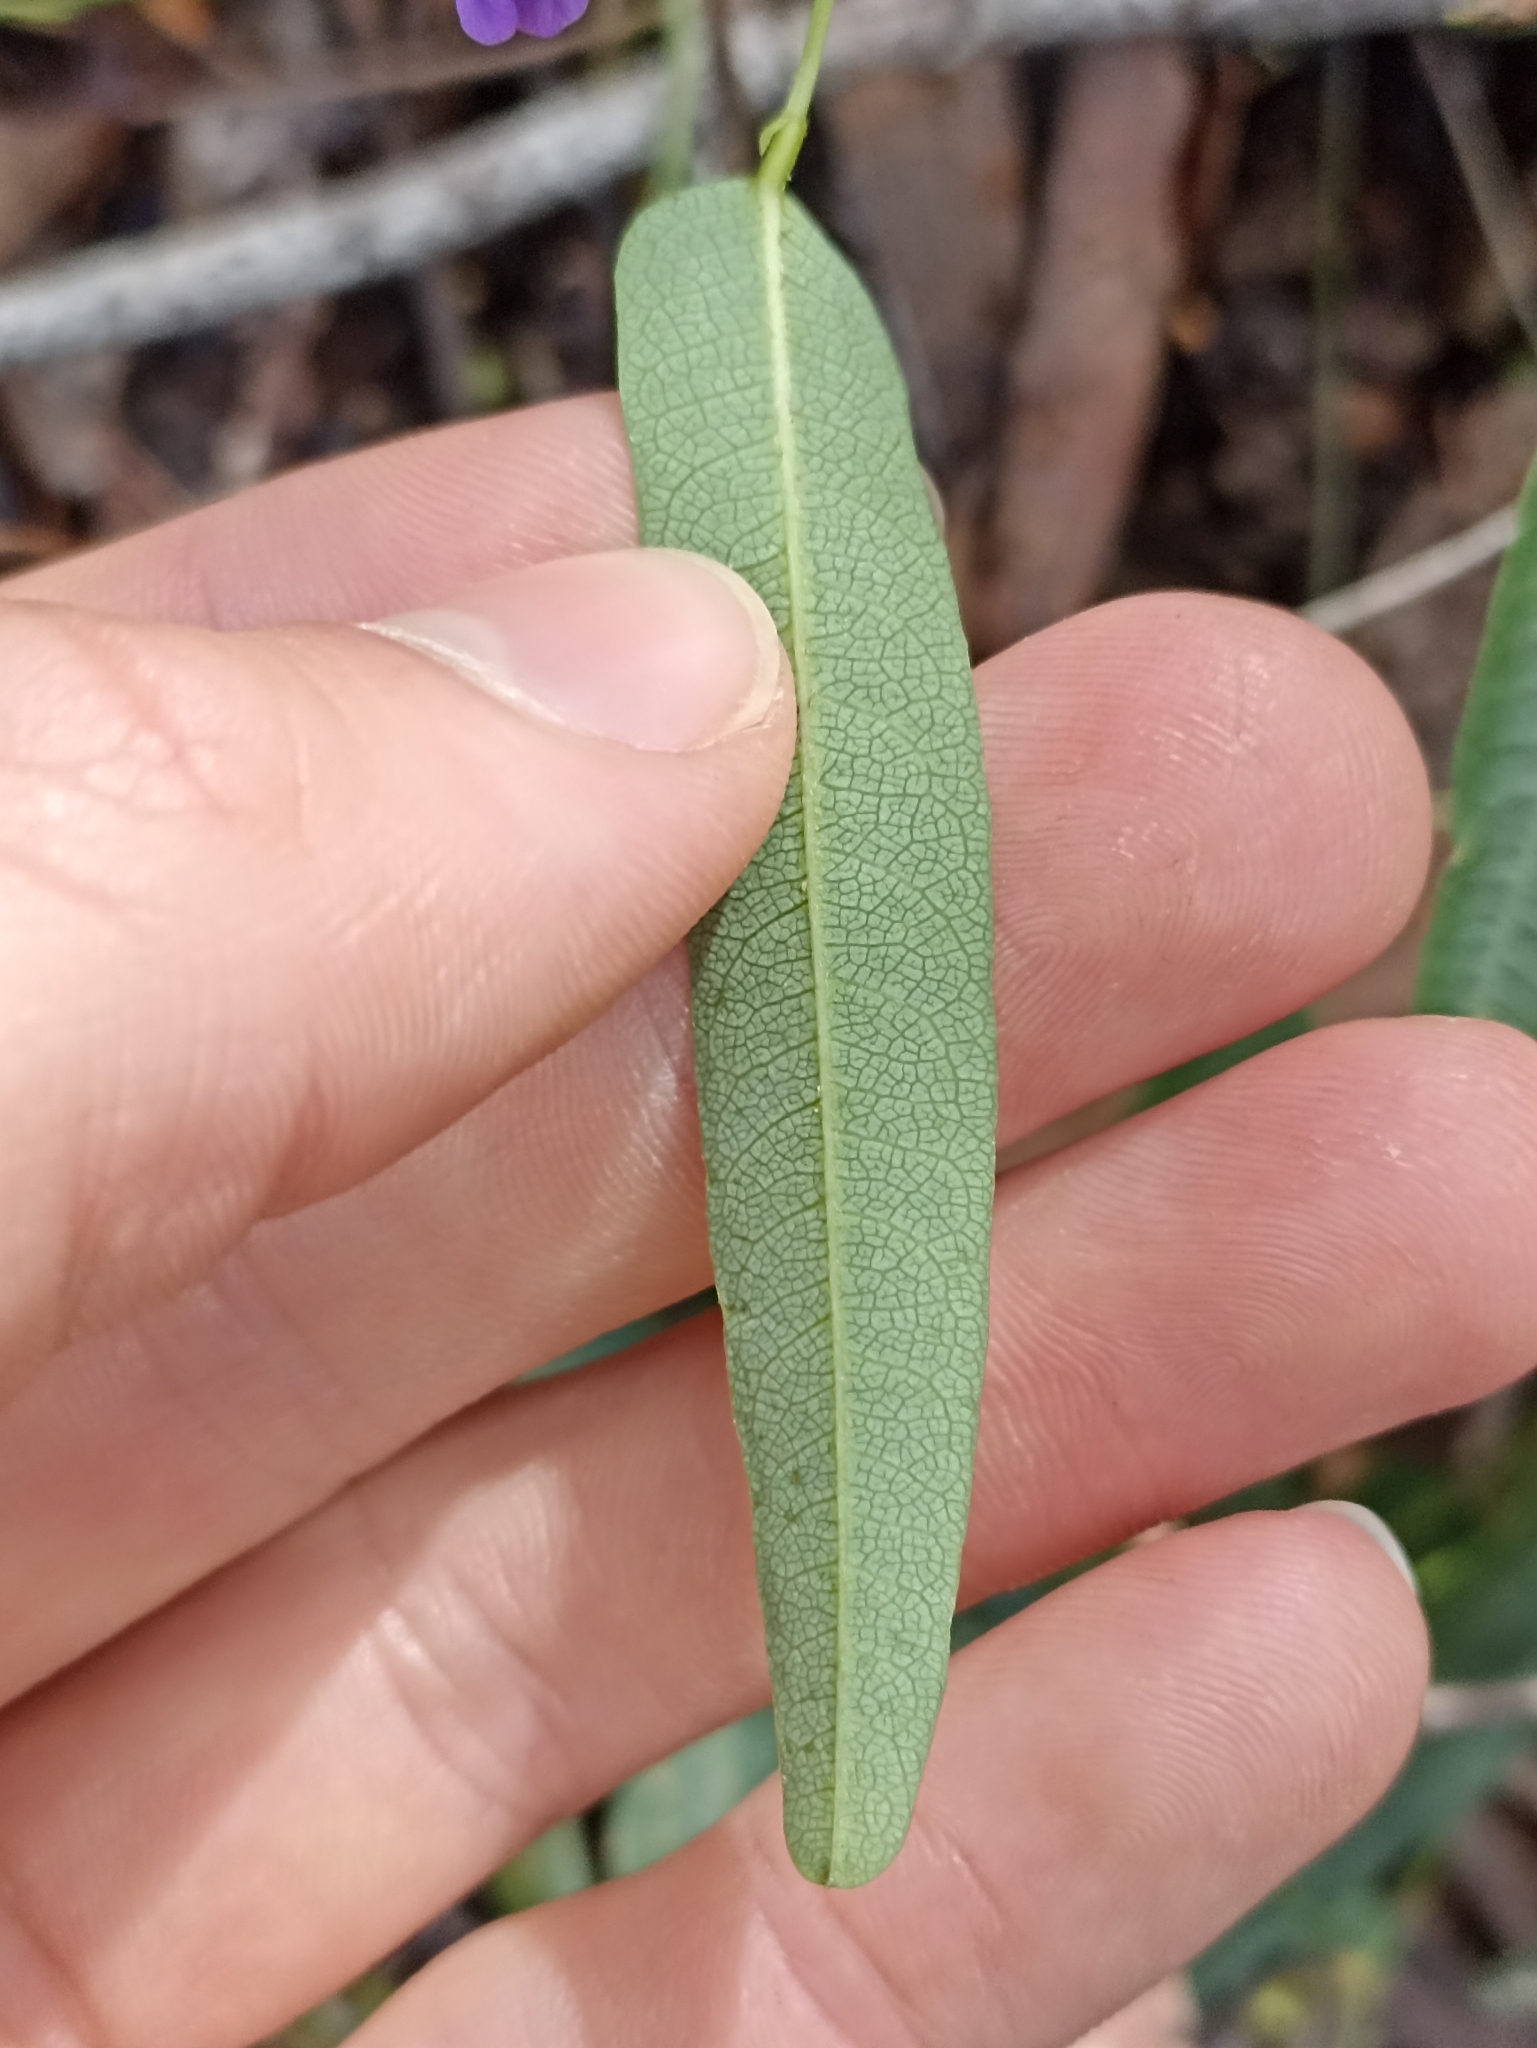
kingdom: Plantae
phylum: Tracheophyta
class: Magnoliopsida
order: Fabales
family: Fabaceae
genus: Hardenbergia
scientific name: Hardenbergia violacea
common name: Coral-pea
